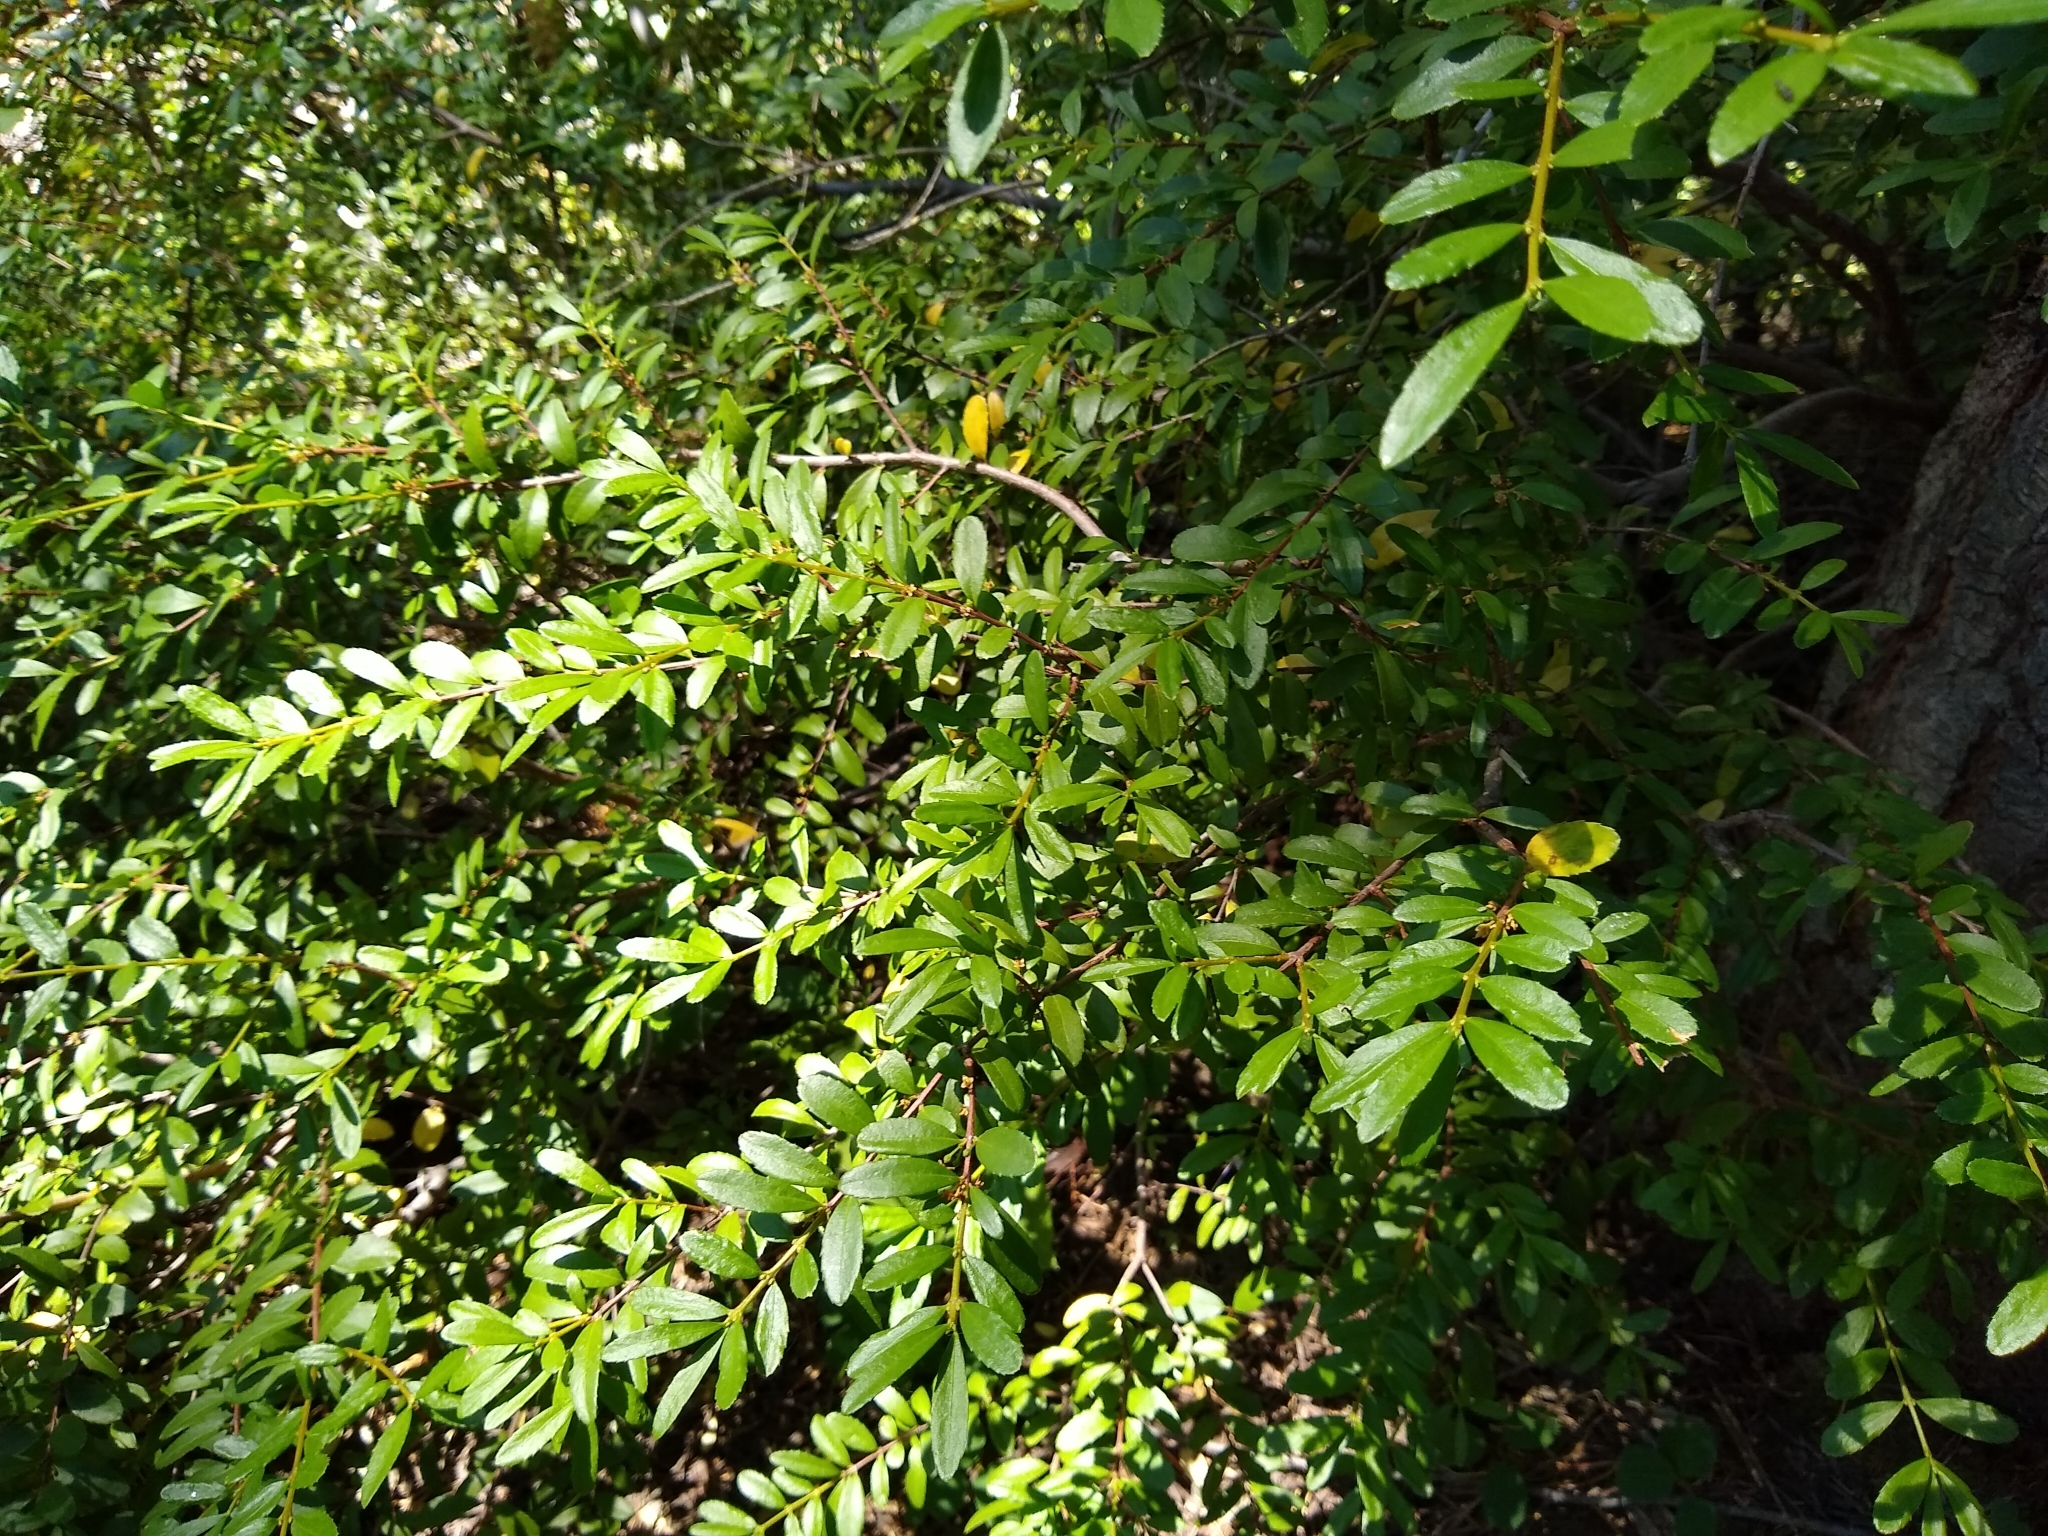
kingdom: Plantae
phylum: Tracheophyta
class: Magnoliopsida
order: Celastrales
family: Celastraceae
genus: Paxistima
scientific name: Paxistima myrsinites
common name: Mountain-lover
